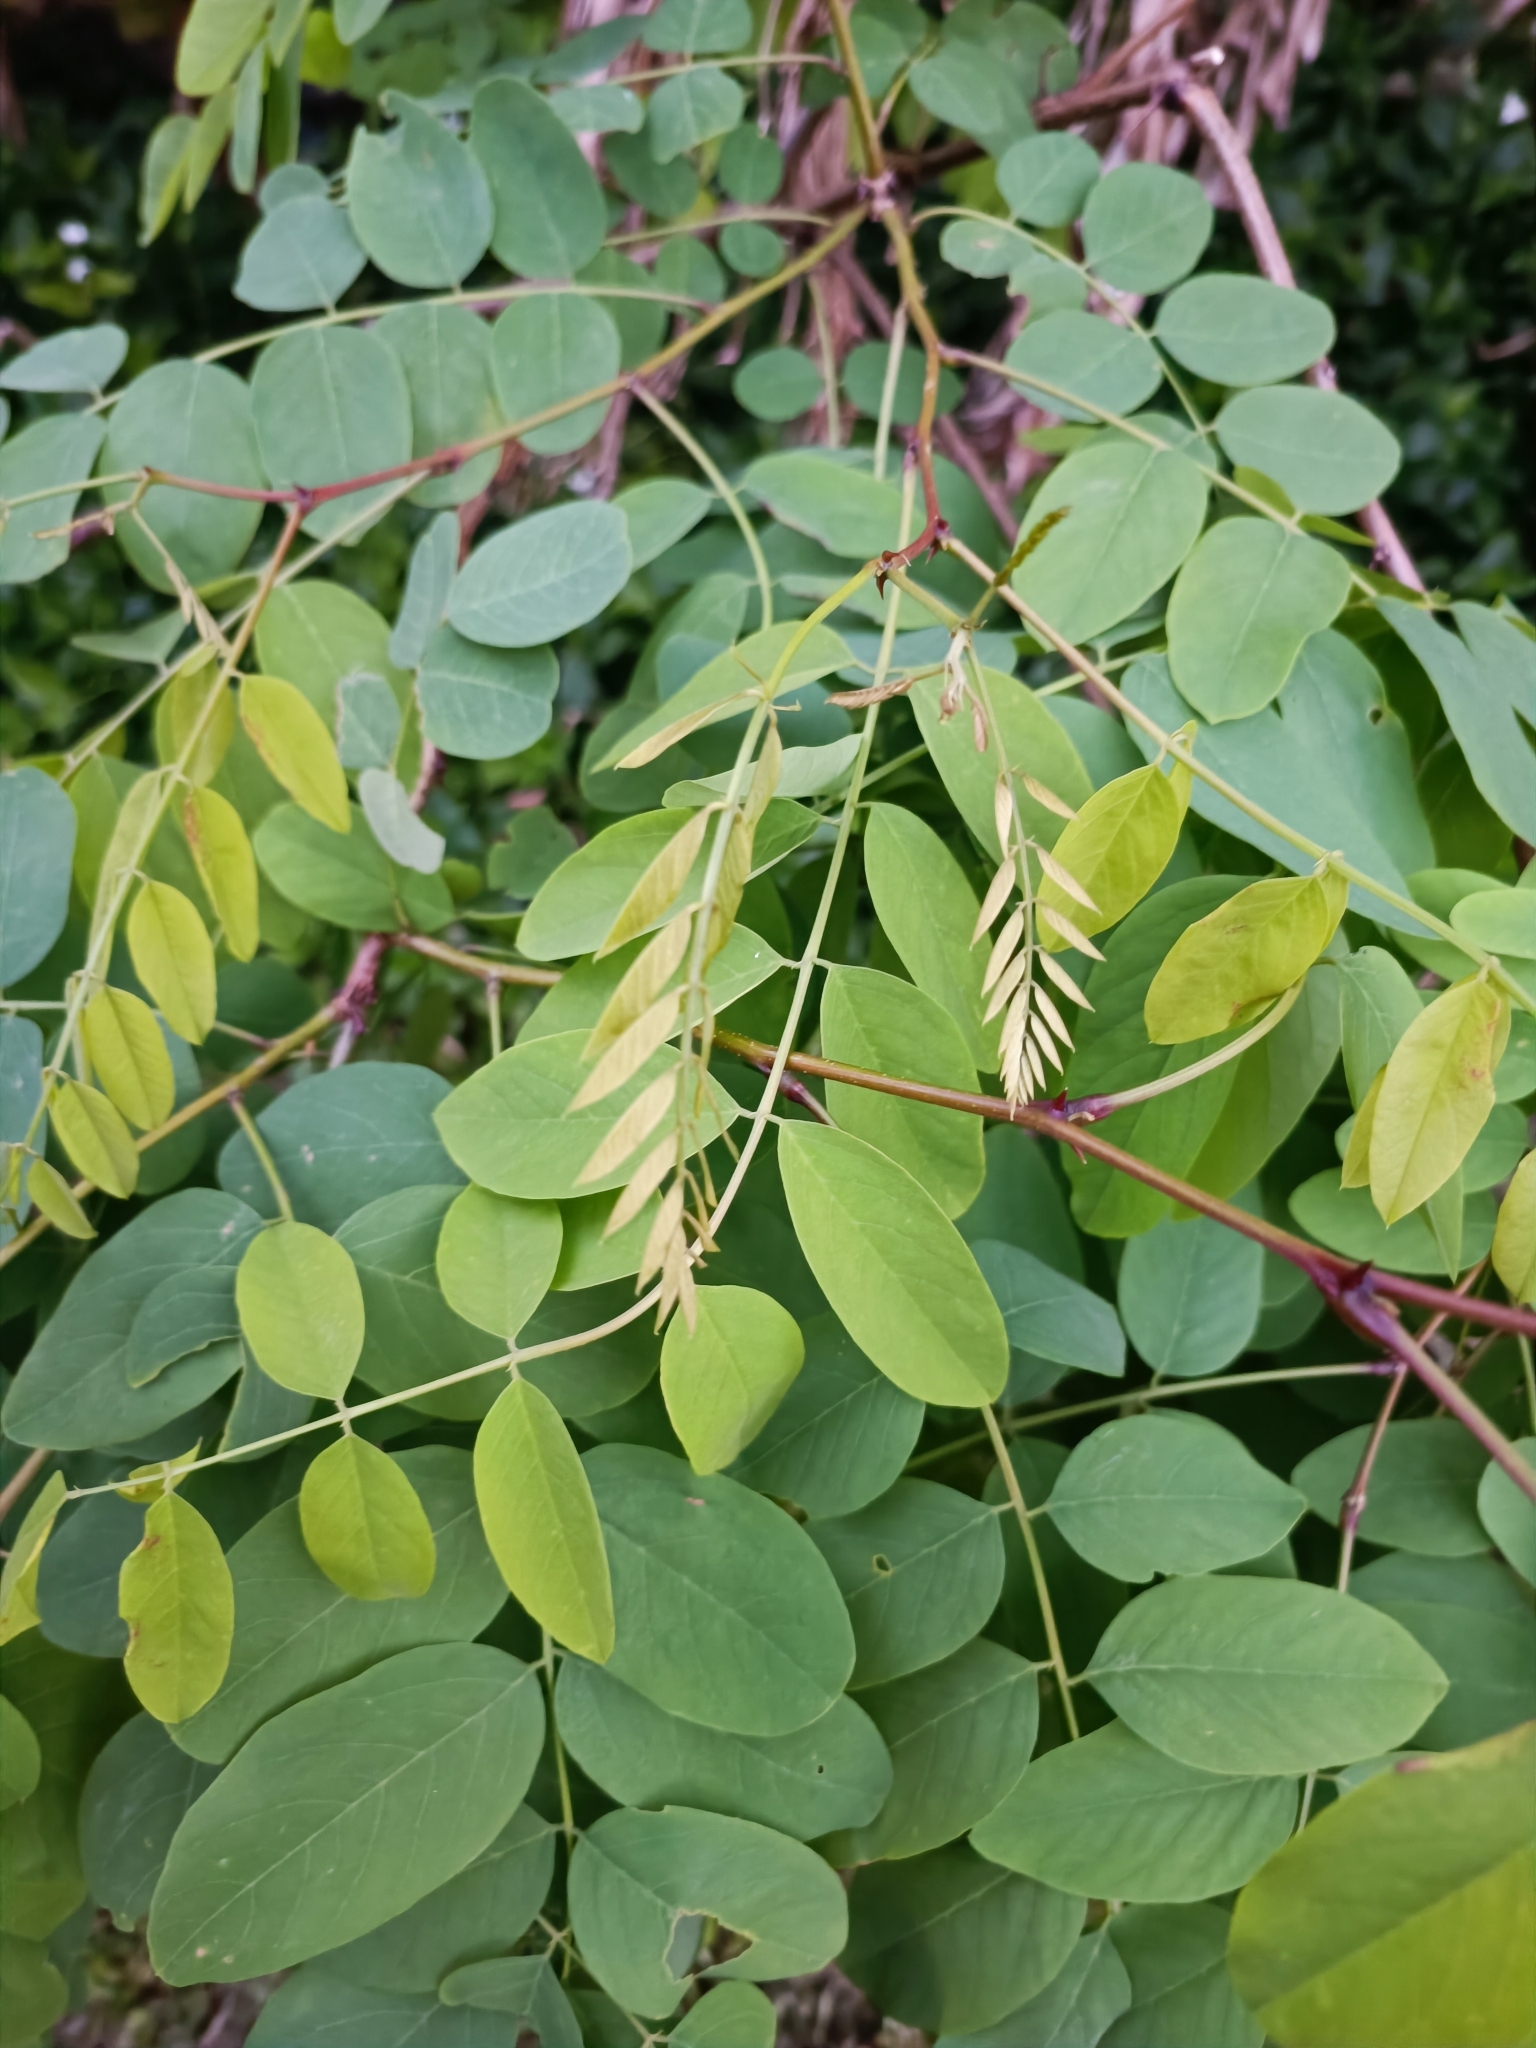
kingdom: Plantae
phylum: Tracheophyta
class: Magnoliopsida
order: Fabales
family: Fabaceae
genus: Robinia
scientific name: Robinia pseudoacacia
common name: Black locust
